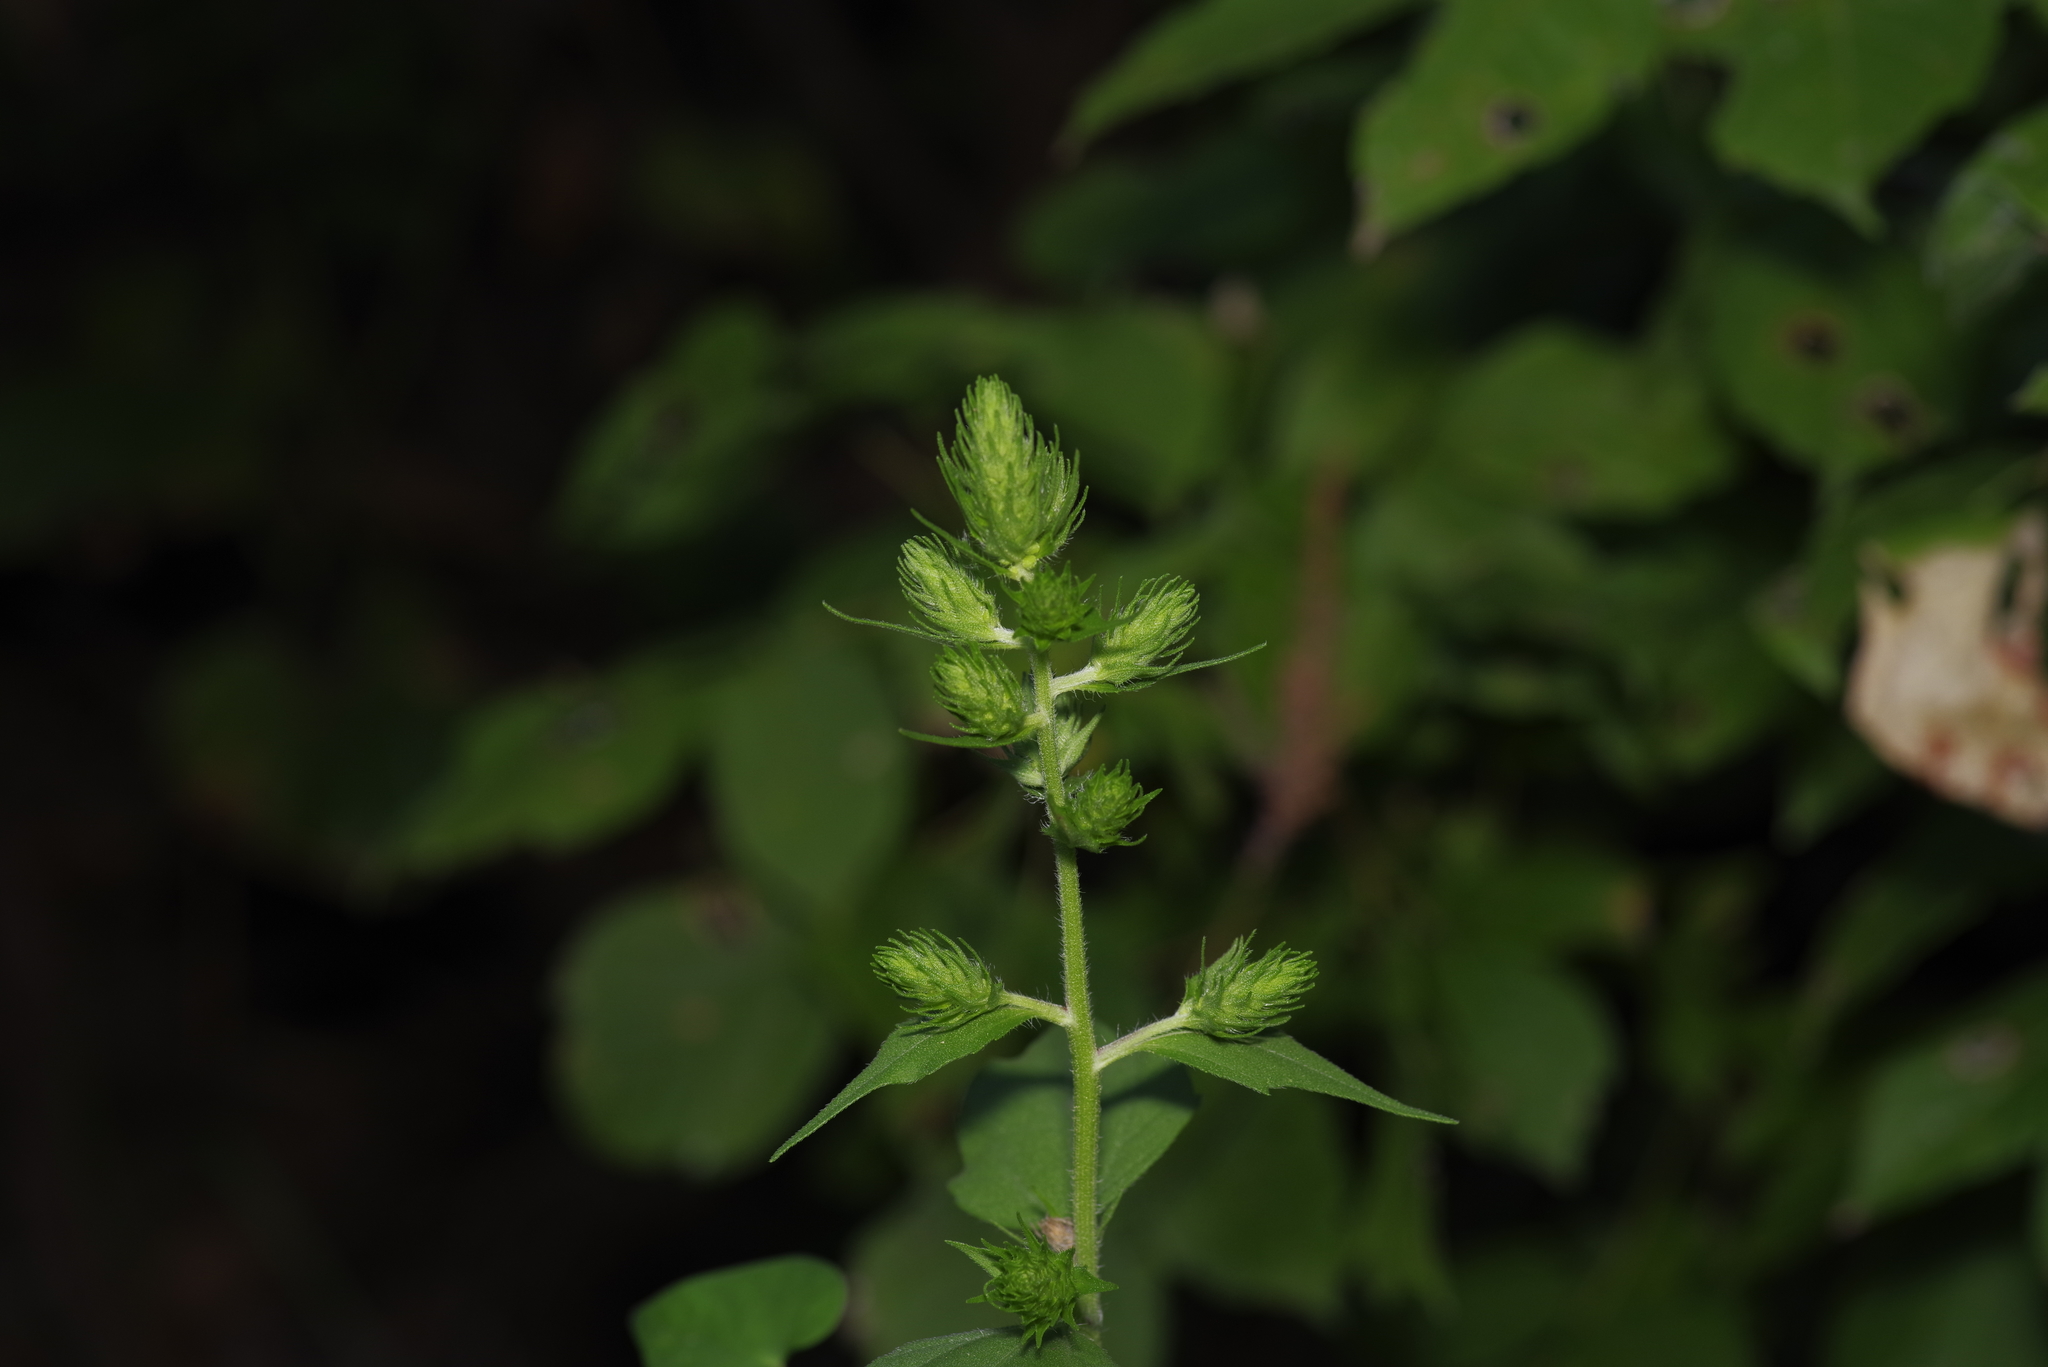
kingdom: Plantae
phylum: Tracheophyta
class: Magnoliopsida
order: Asterales
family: Asteraceae
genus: Iva
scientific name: Iva annua
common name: Marsh-elder
